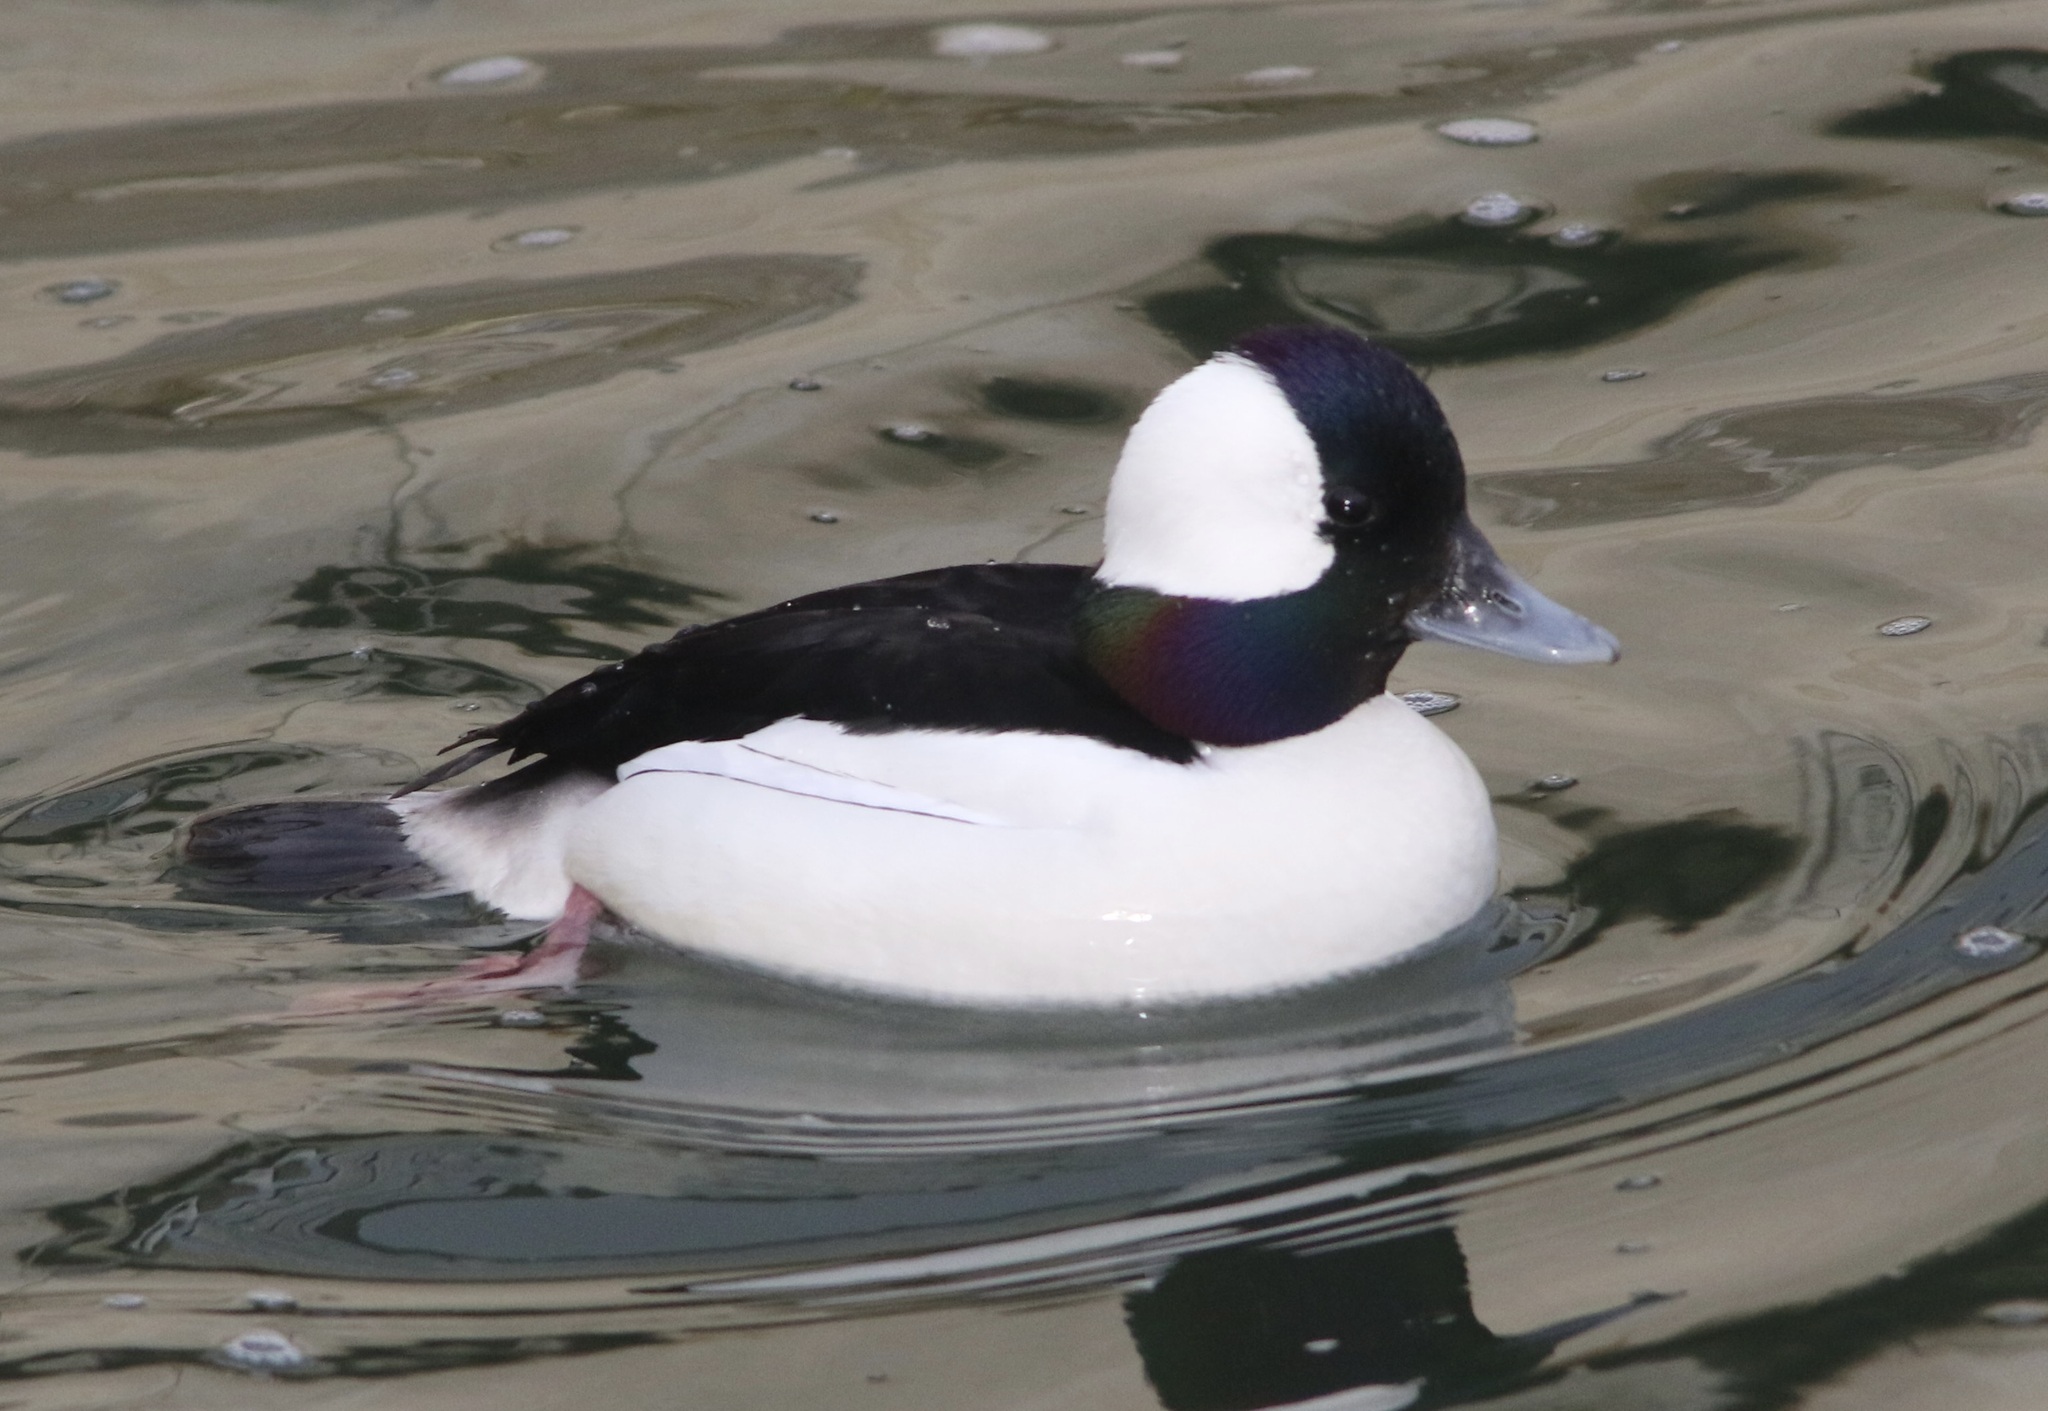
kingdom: Animalia
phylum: Chordata
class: Aves
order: Anseriformes
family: Anatidae
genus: Bucephala
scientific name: Bucephala albeola
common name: Bufflehead
